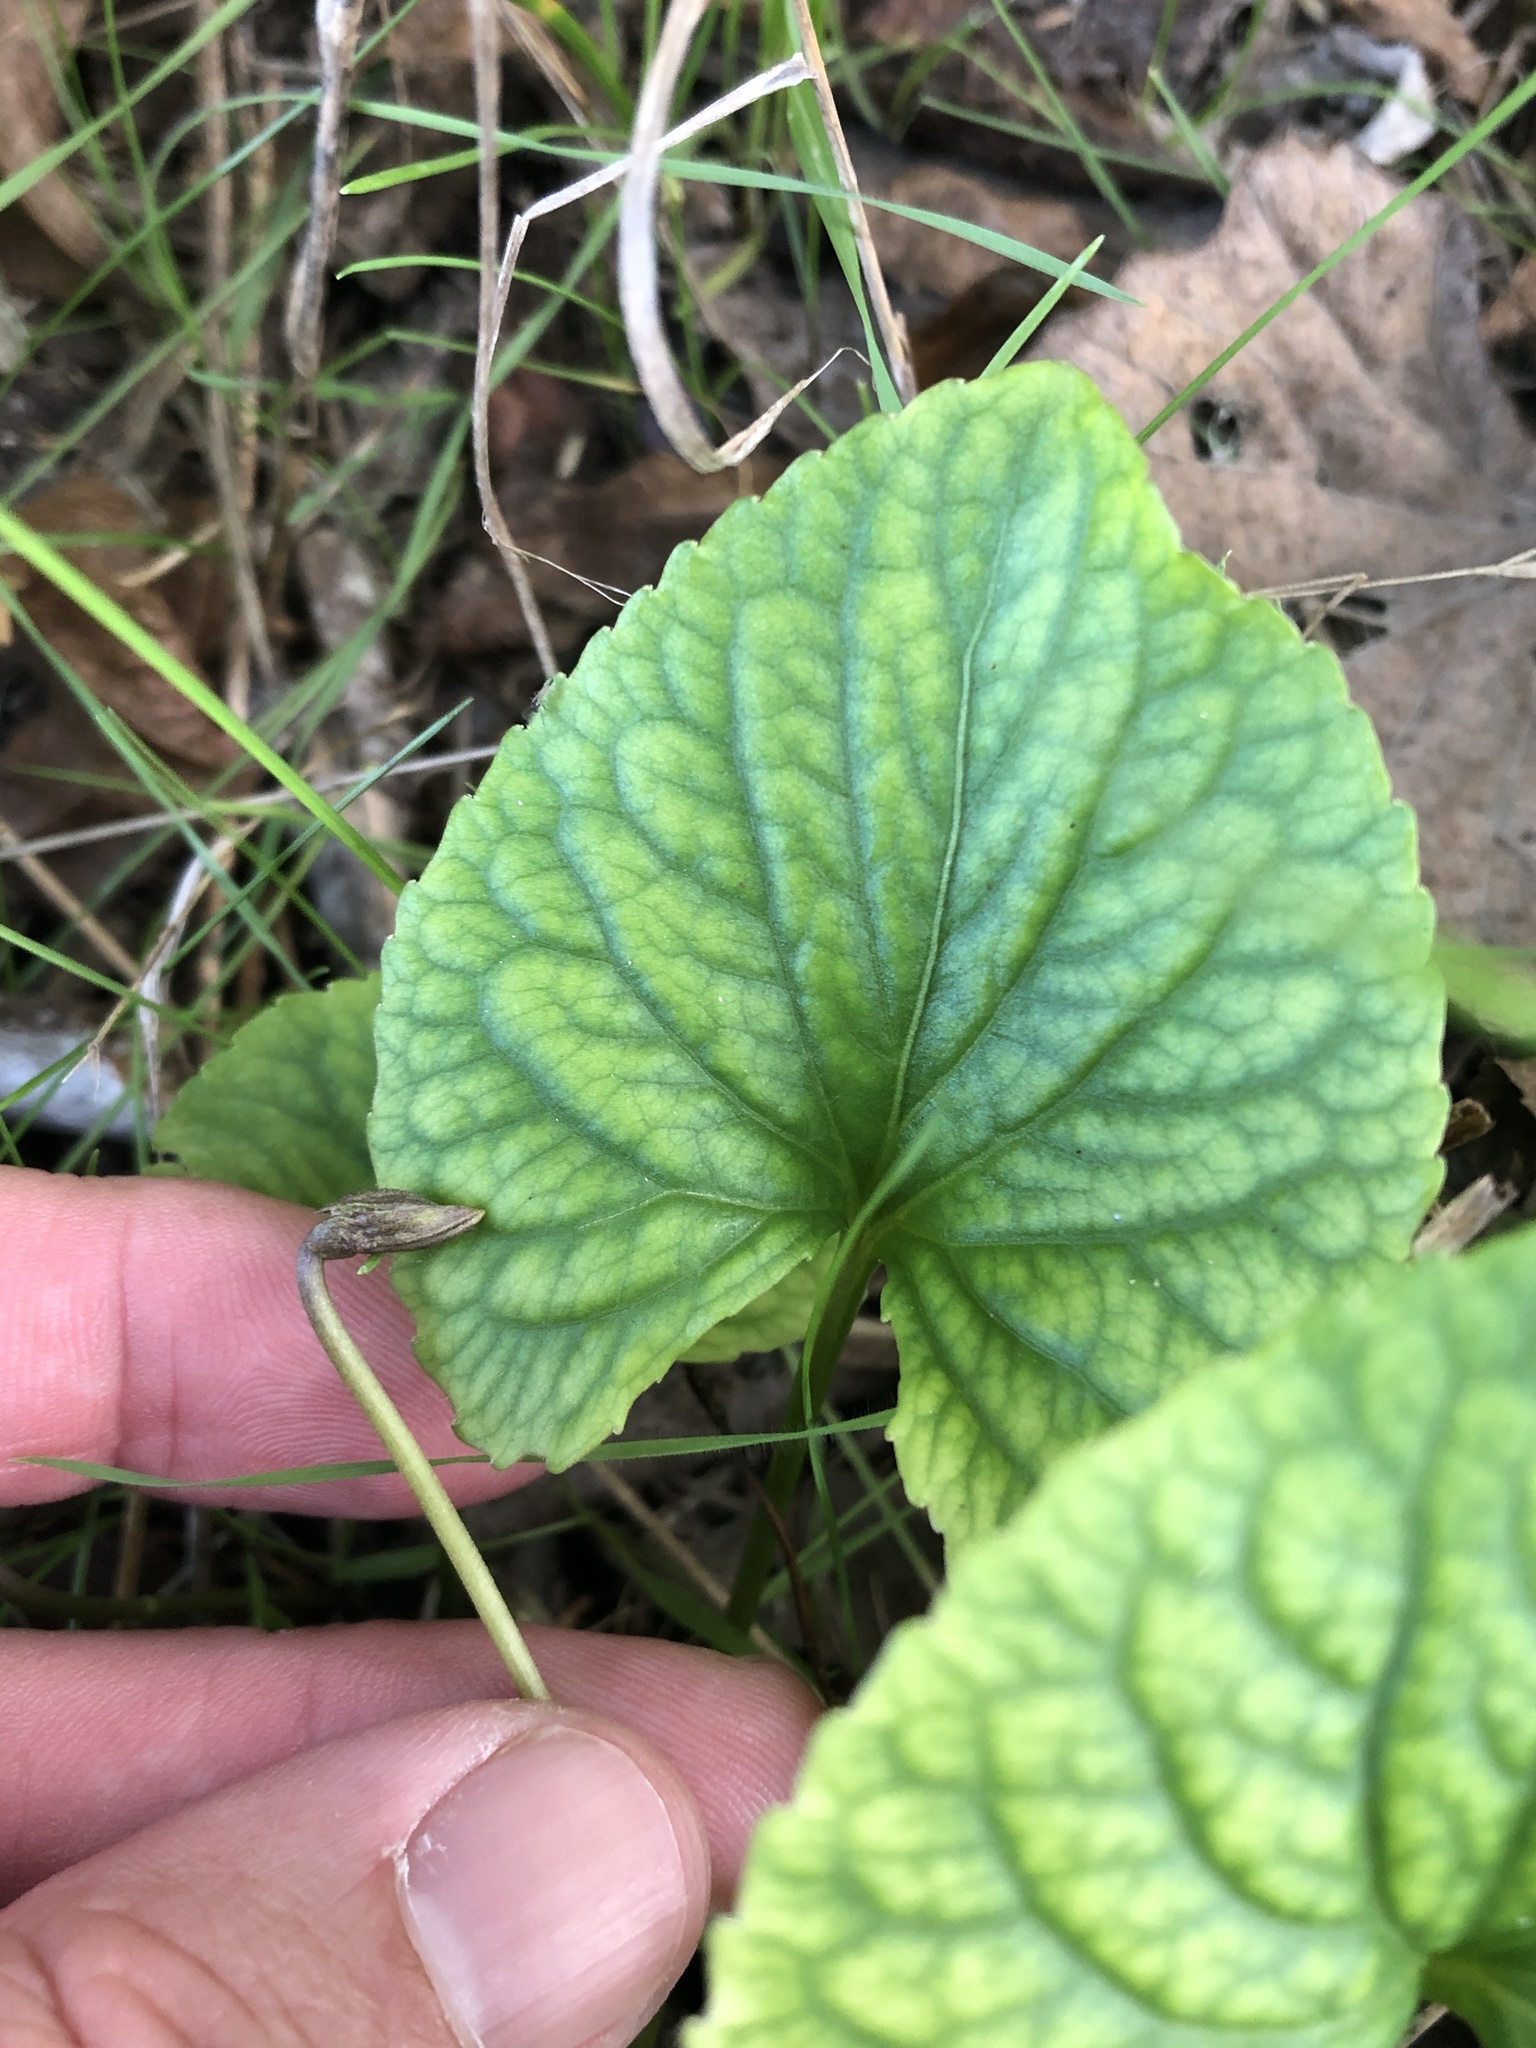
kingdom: Plantae
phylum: Tracheophyta
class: Magnoliopsida
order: Malpighiales
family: Violaceae
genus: Viola
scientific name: Viola sororia
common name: Dooryard violet
